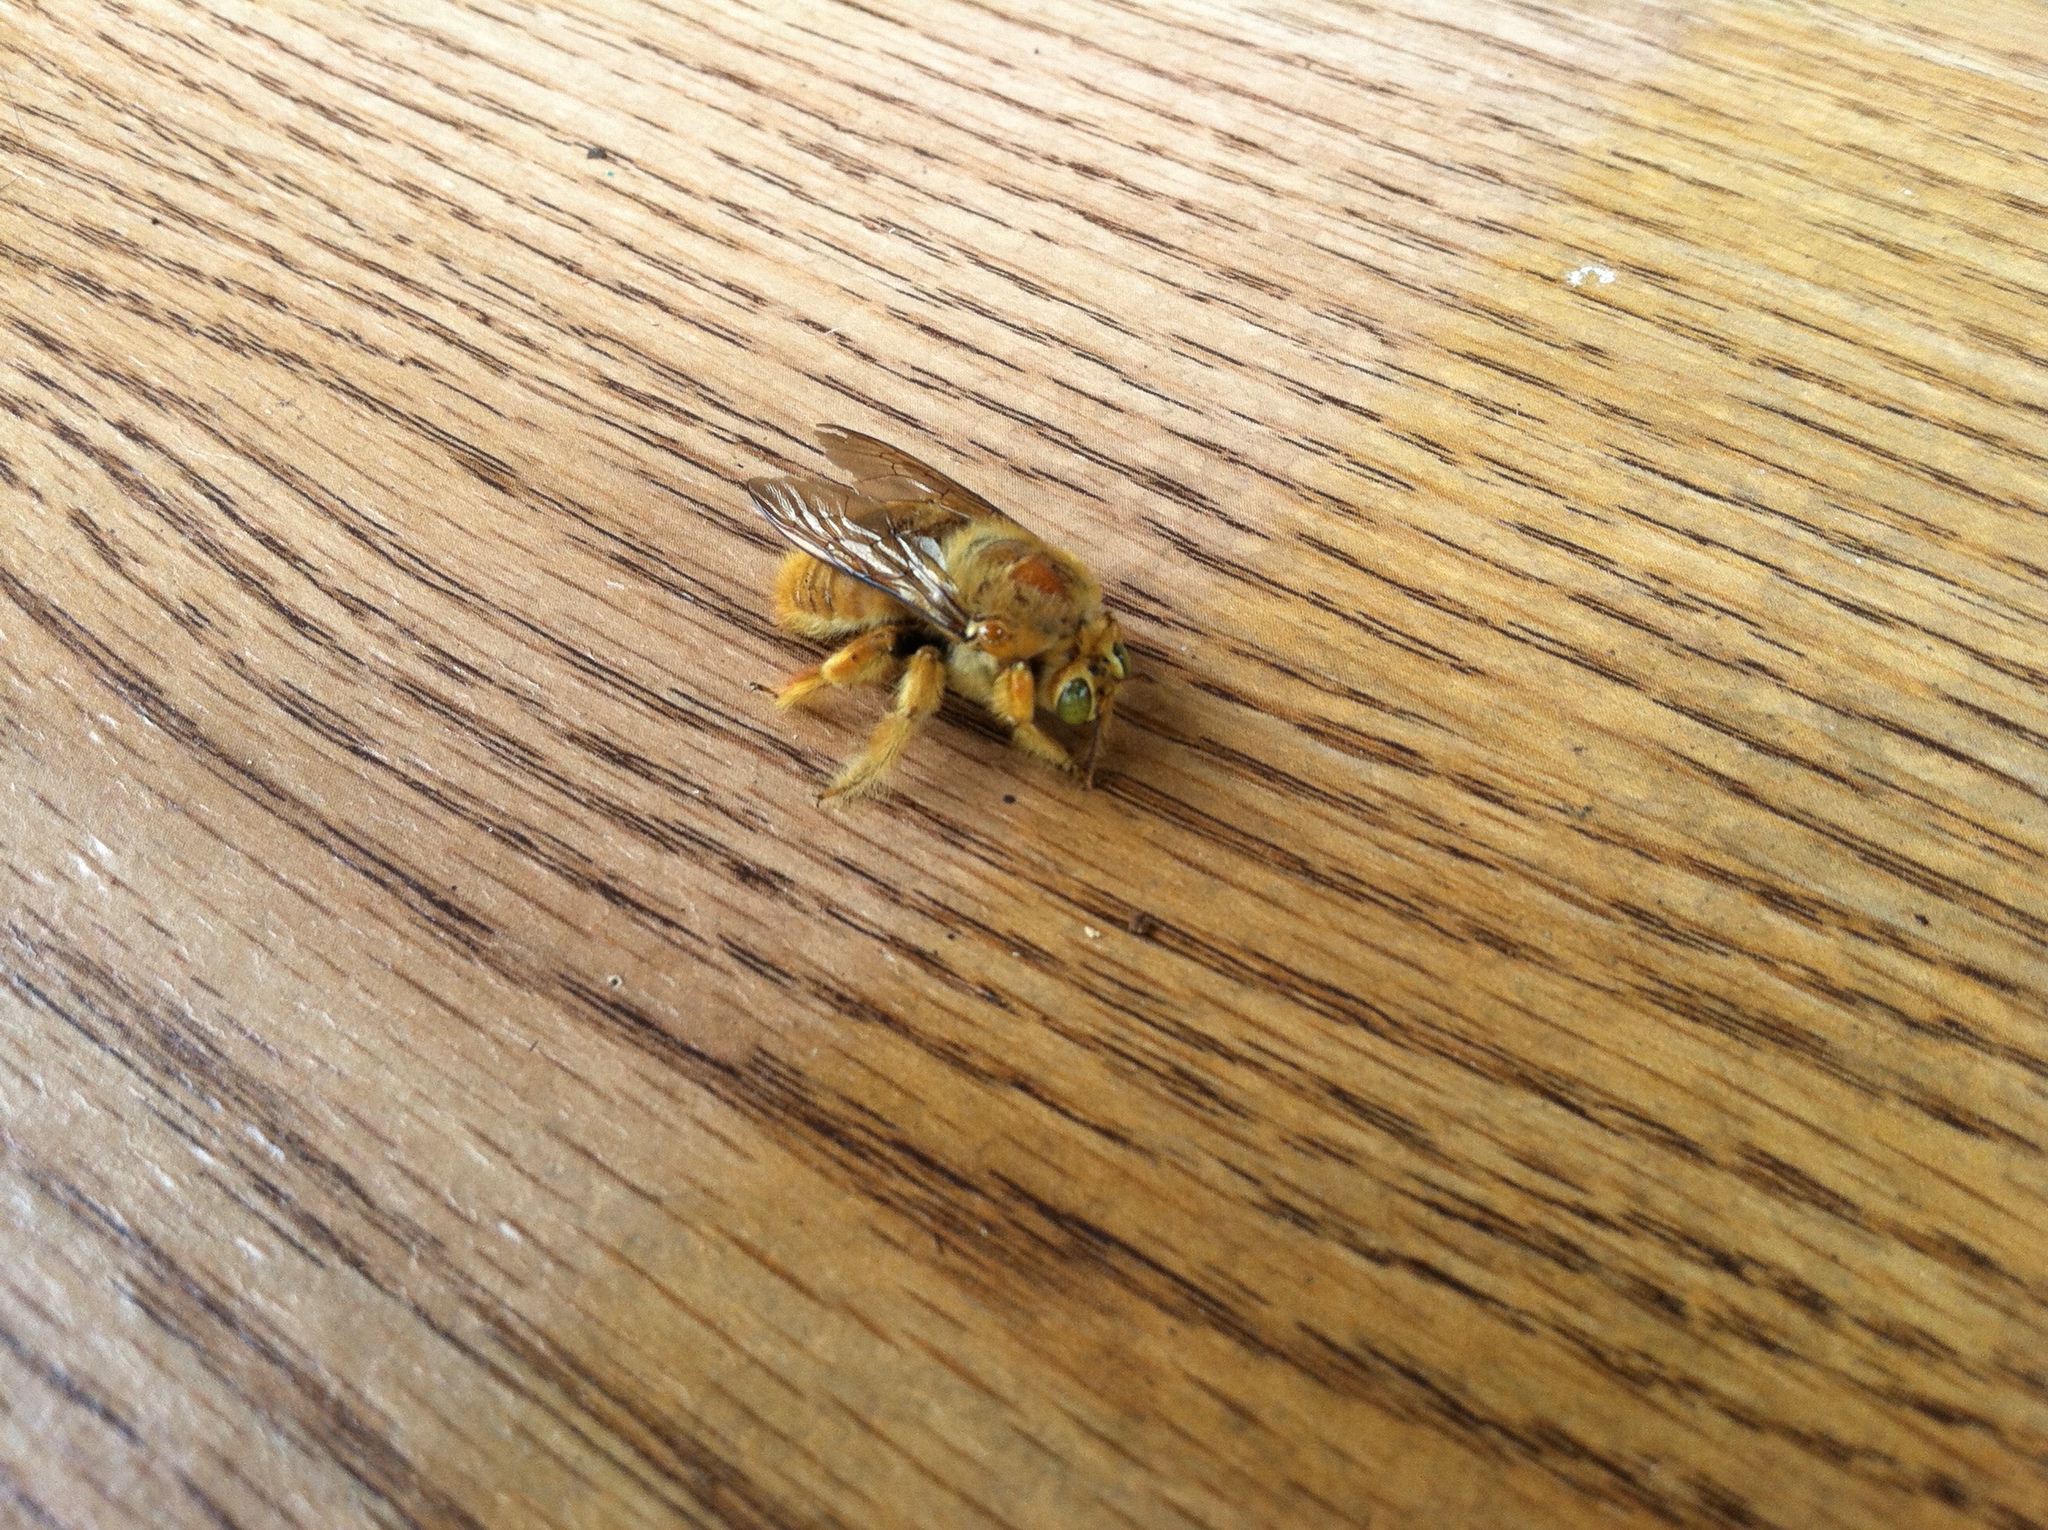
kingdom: Animalia
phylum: Arthropoda
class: Insecta
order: Hymenoptera
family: Apidae
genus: Xylocopa
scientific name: Xylocopa sonorina
